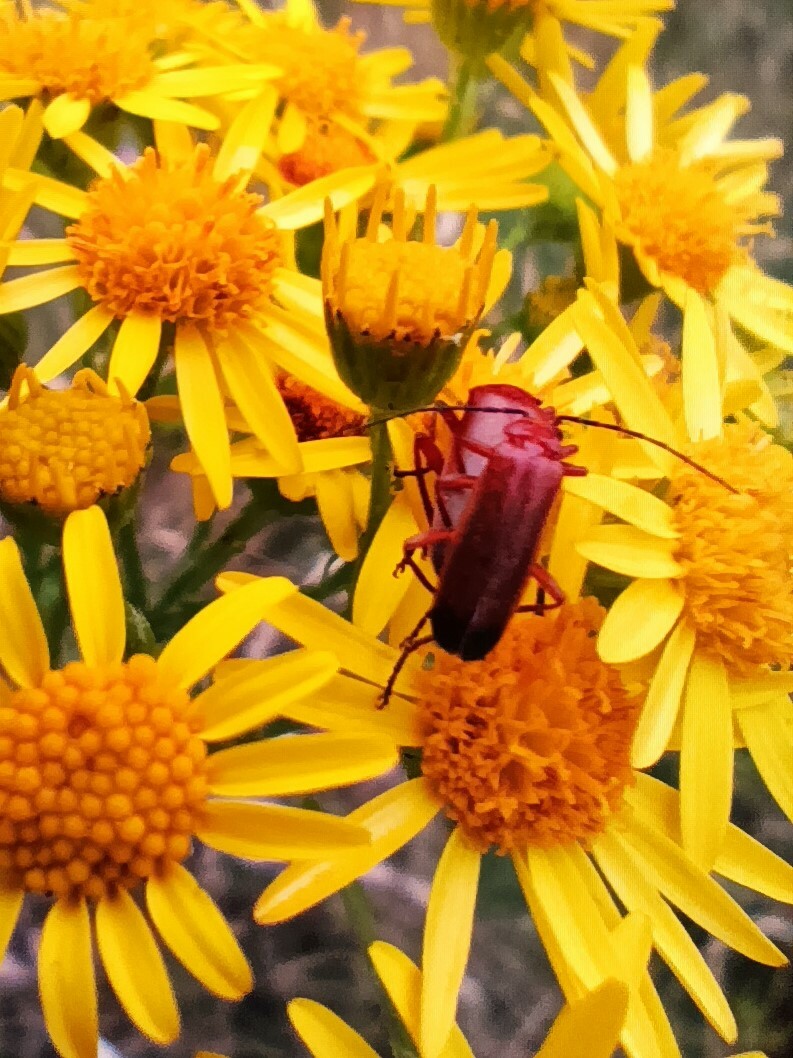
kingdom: Animalia
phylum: Arthropoda
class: Insecta
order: Coleoptera
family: Cantharidae
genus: Rhagonycha
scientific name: Rhagonycha fulva
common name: Common red soldier beetle
